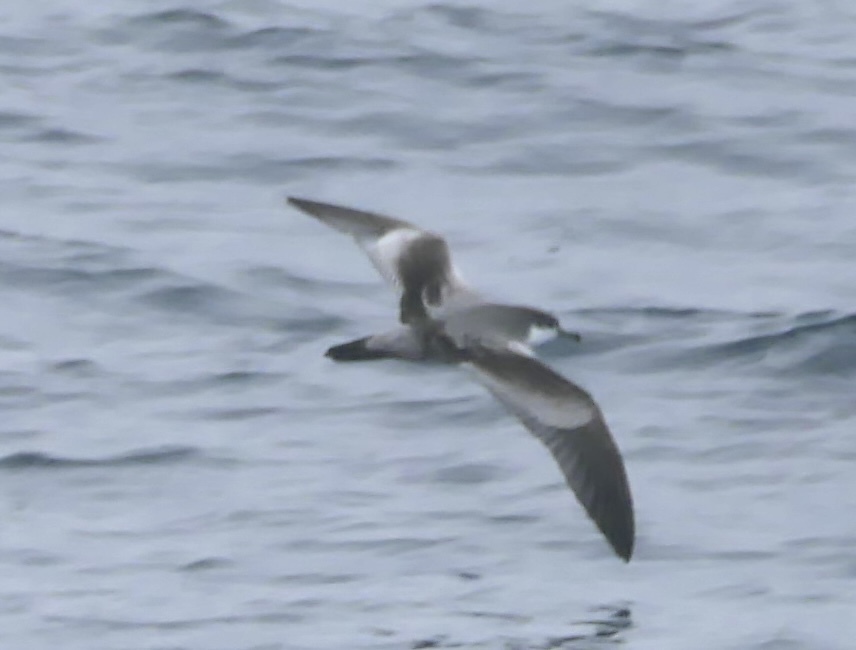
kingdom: Animalia
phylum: Chordata
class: Aves
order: Procellariiformes
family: Procellariidae
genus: Puffinus
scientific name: Puffinus bulleri
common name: Buller's shearwater
